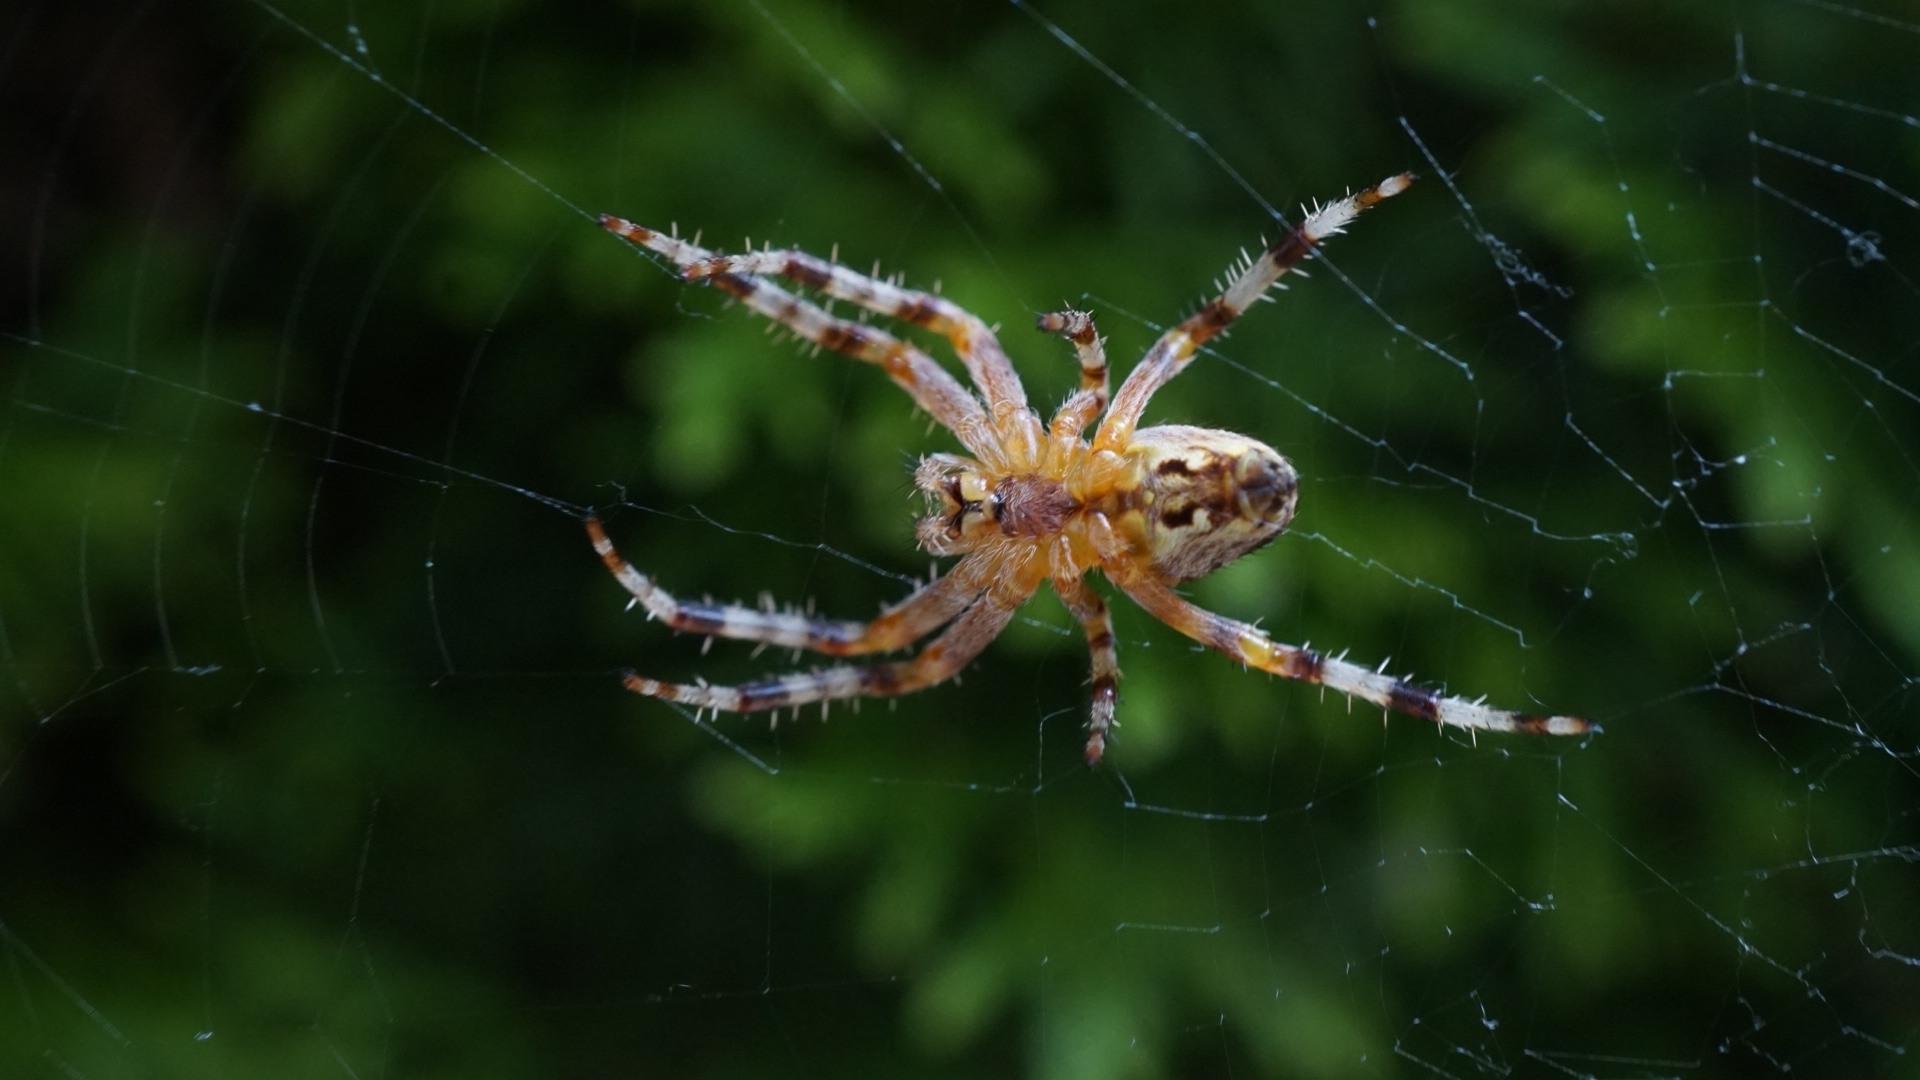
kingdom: Animalia
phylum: Arthropoda
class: Arachnida
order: Araneae
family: Araneidae
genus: Araneus
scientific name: Araneus diadematus
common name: Cross orbweaver
